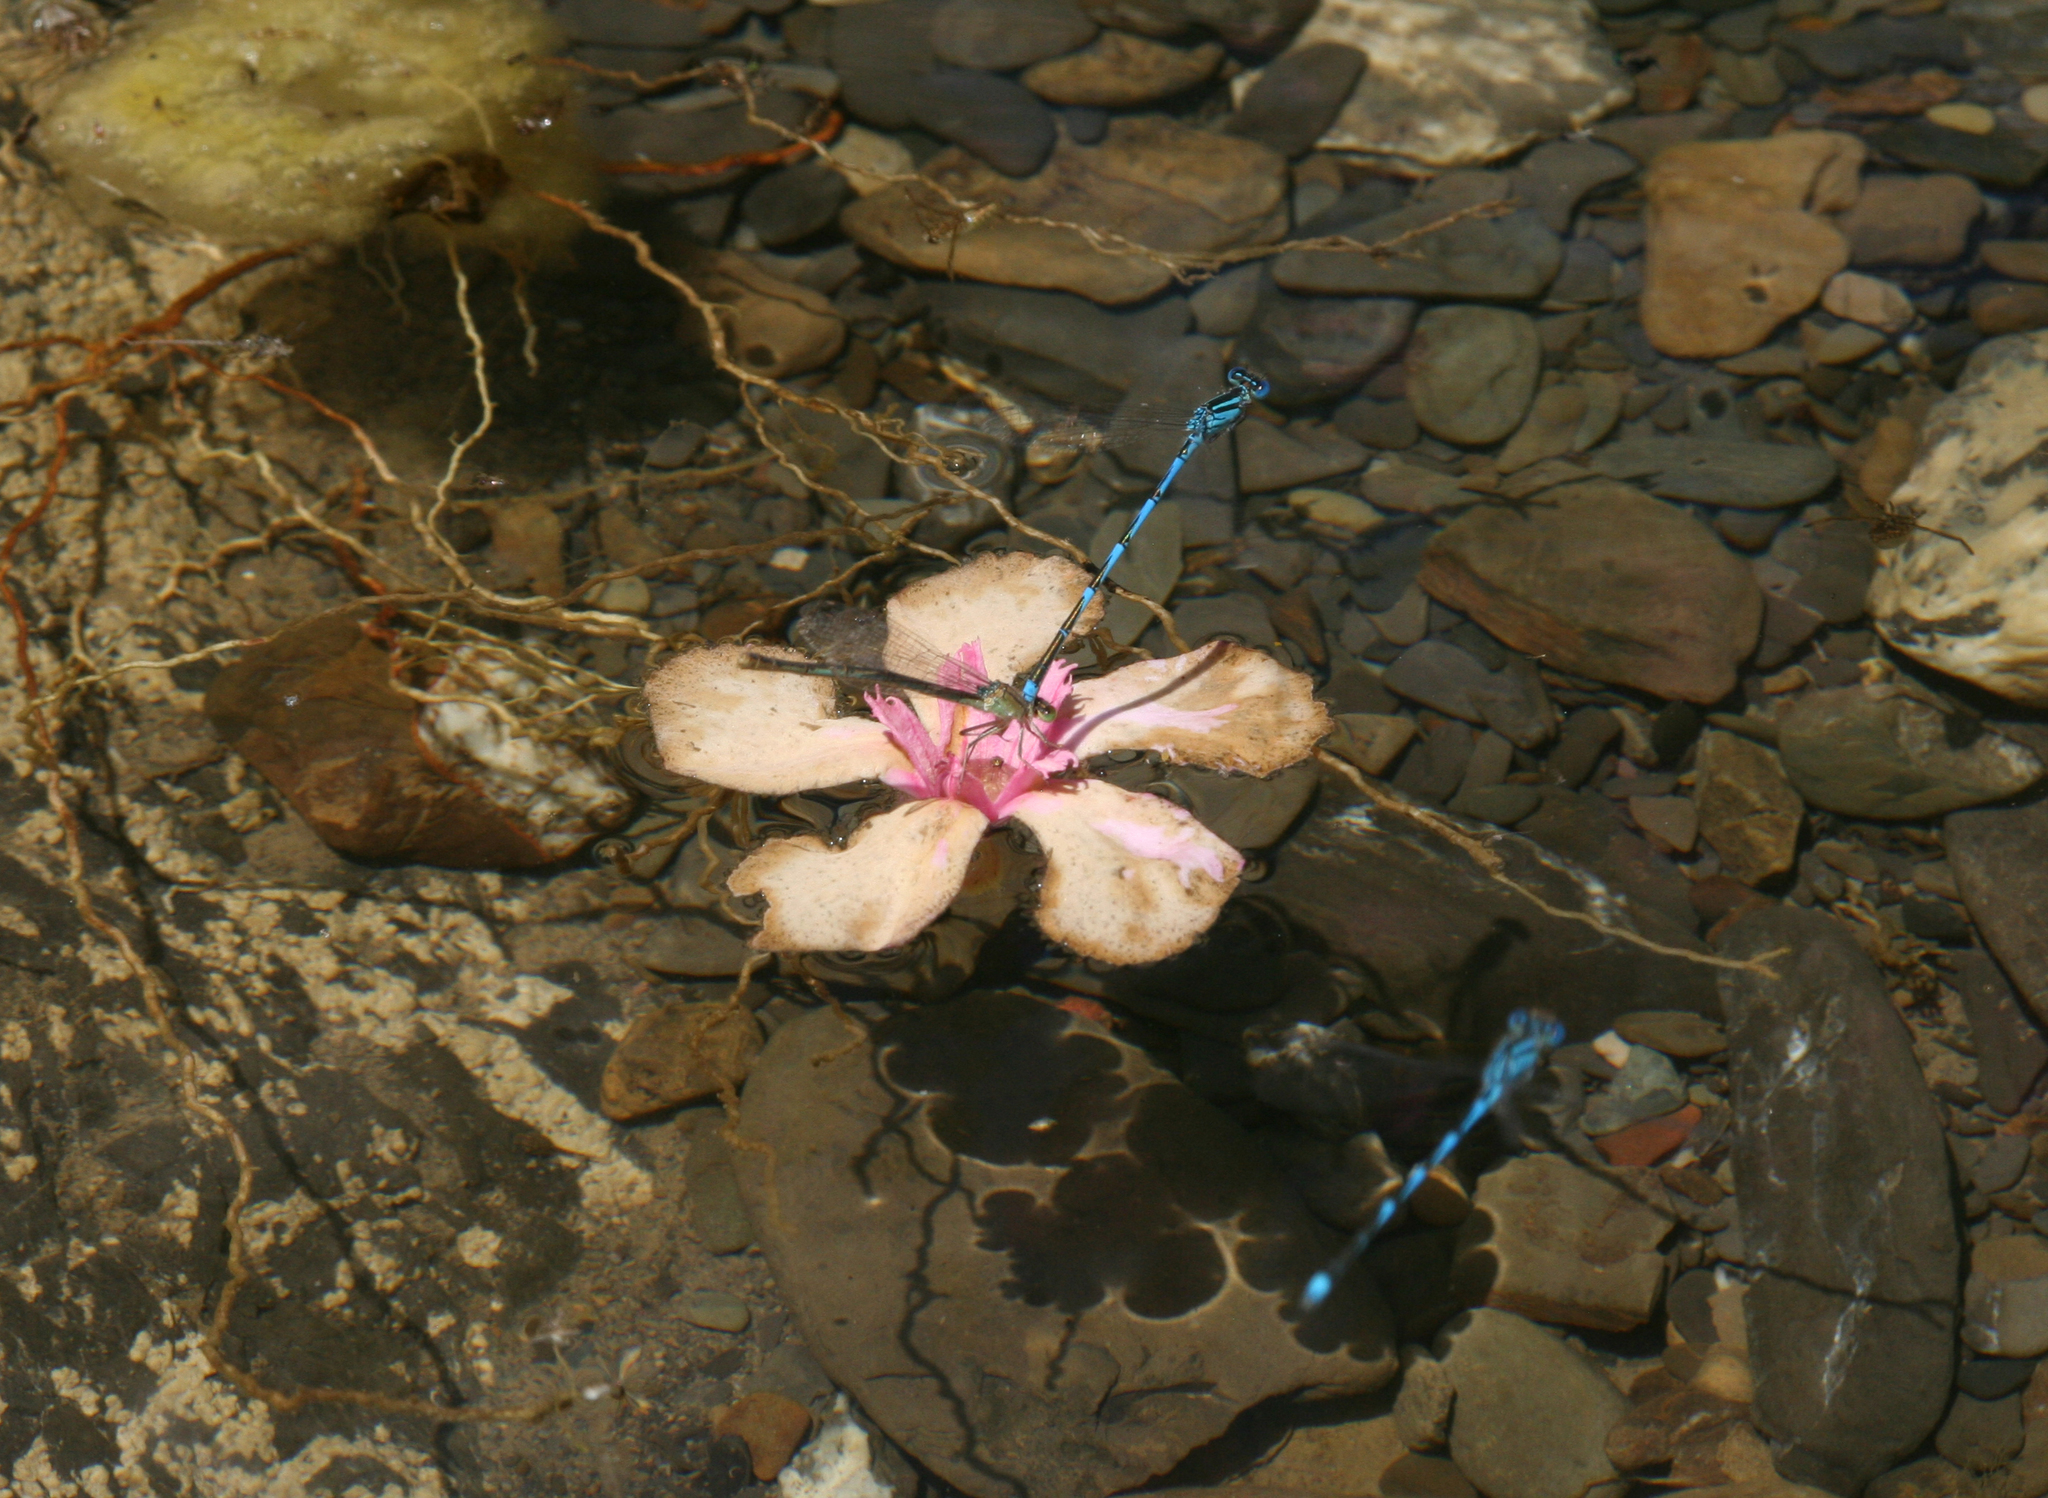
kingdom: Animalia
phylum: Arthropoda
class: Insecta
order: Odonata
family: Coenagrionidae
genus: Erythromma
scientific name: Erythromma lindenii
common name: Blue-eye
